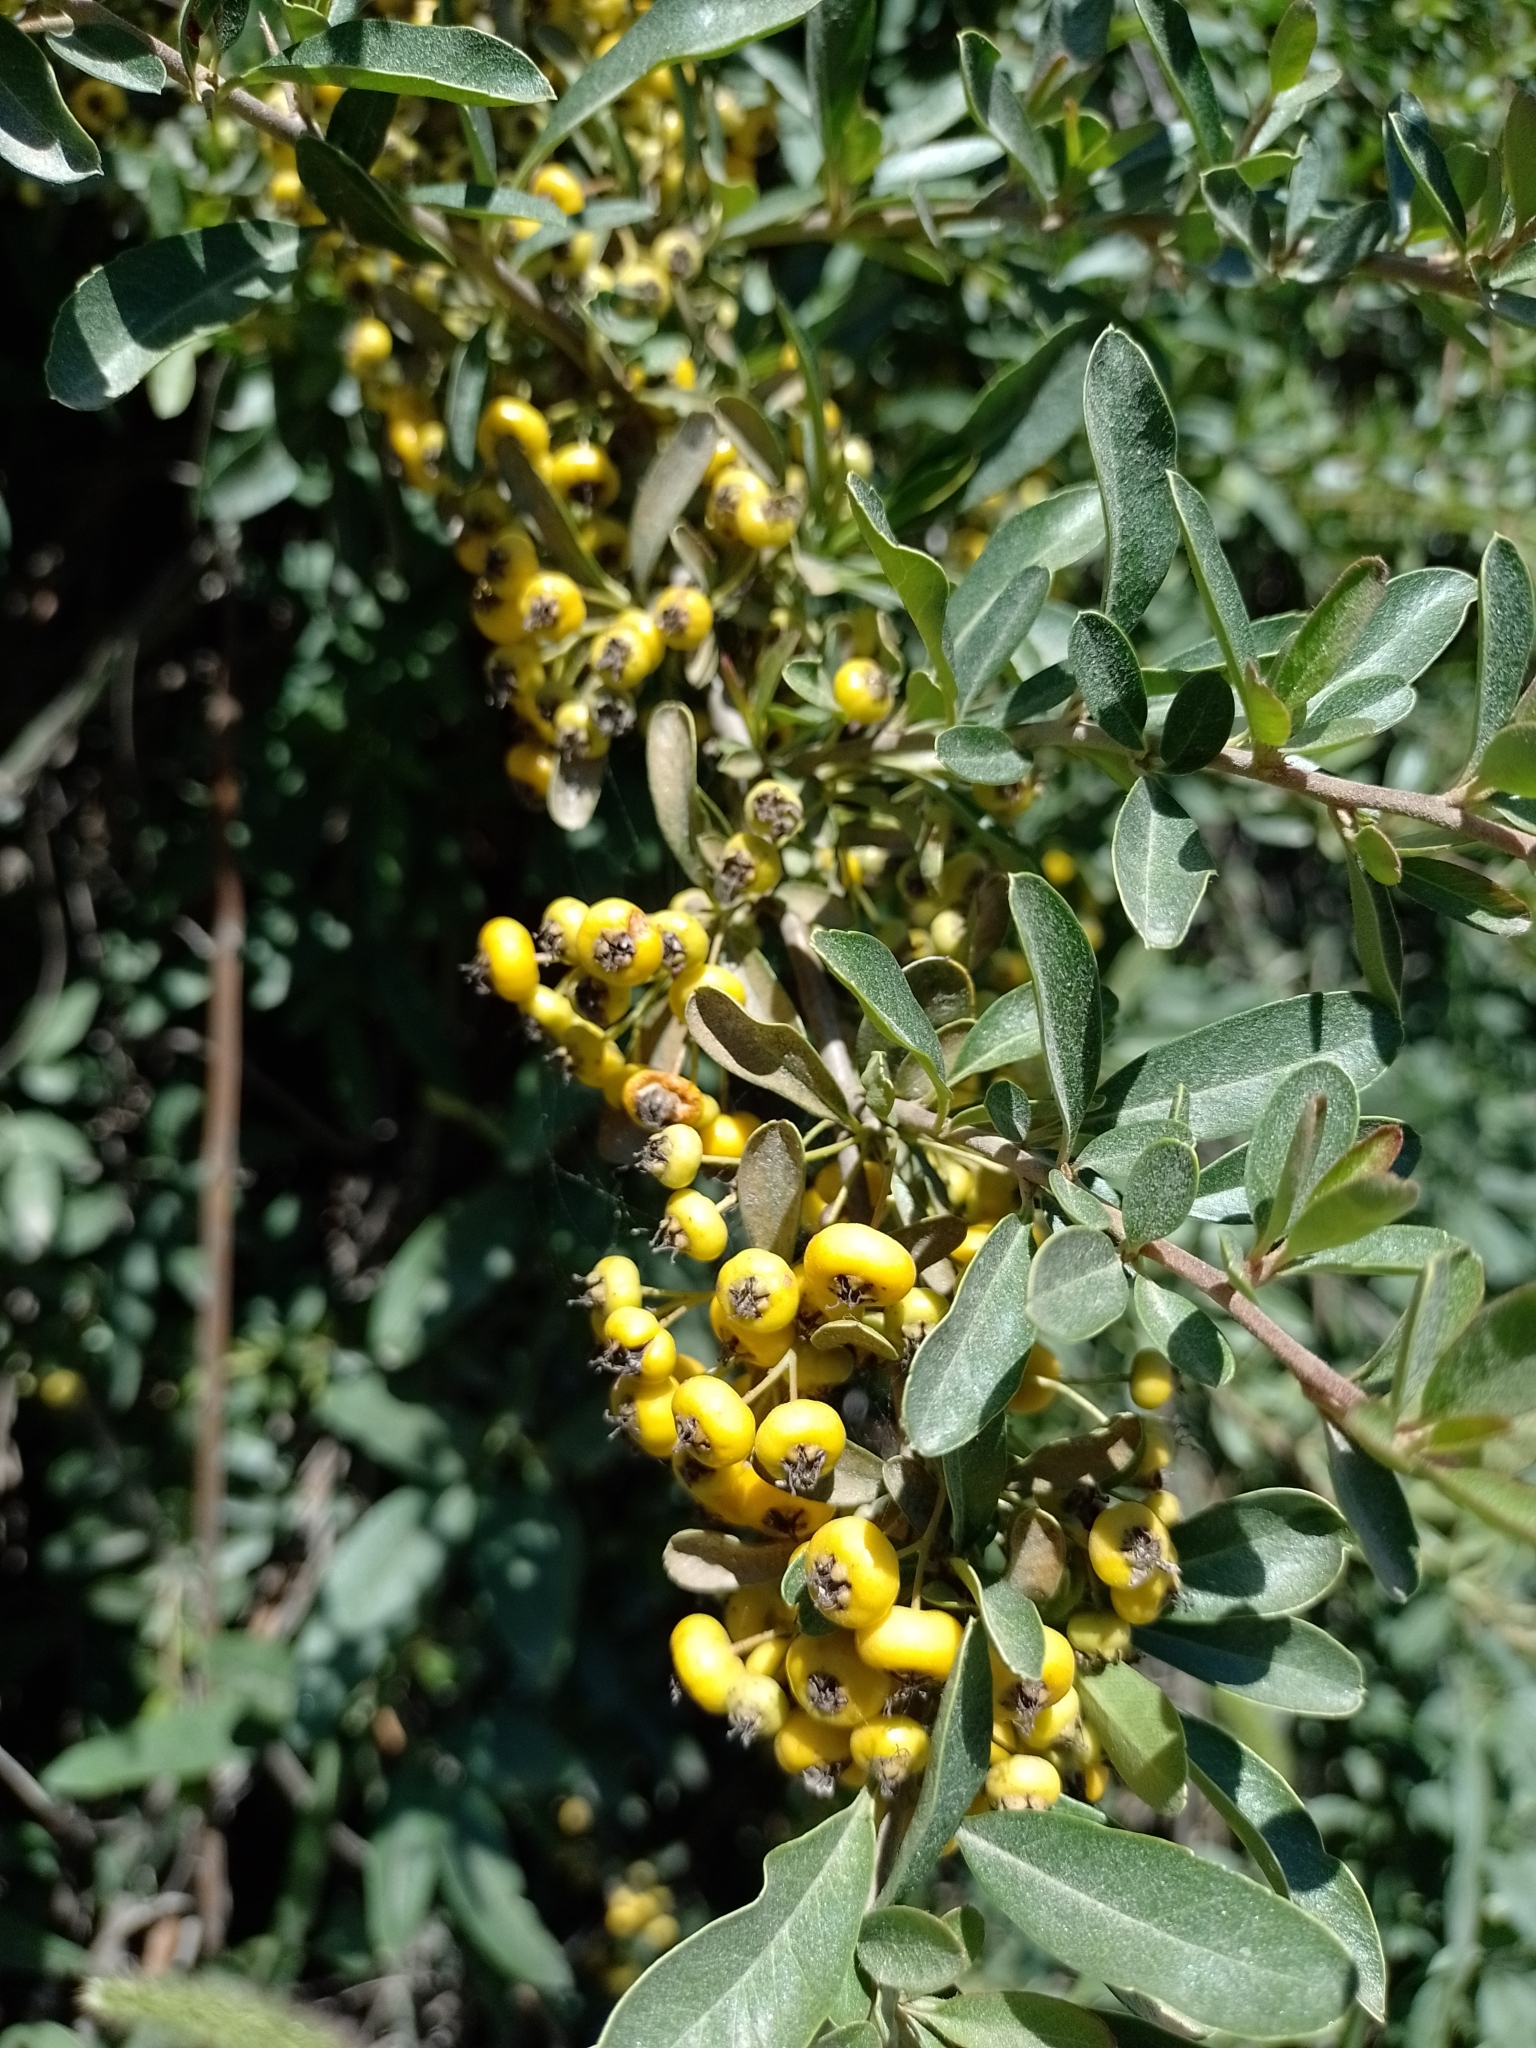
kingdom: Plantae
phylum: Tracheophyta
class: Magnoliopsida
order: Rosales
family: Rosaceae
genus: Pyracantha
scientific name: Pyracantha coccinea
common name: Firethorn
